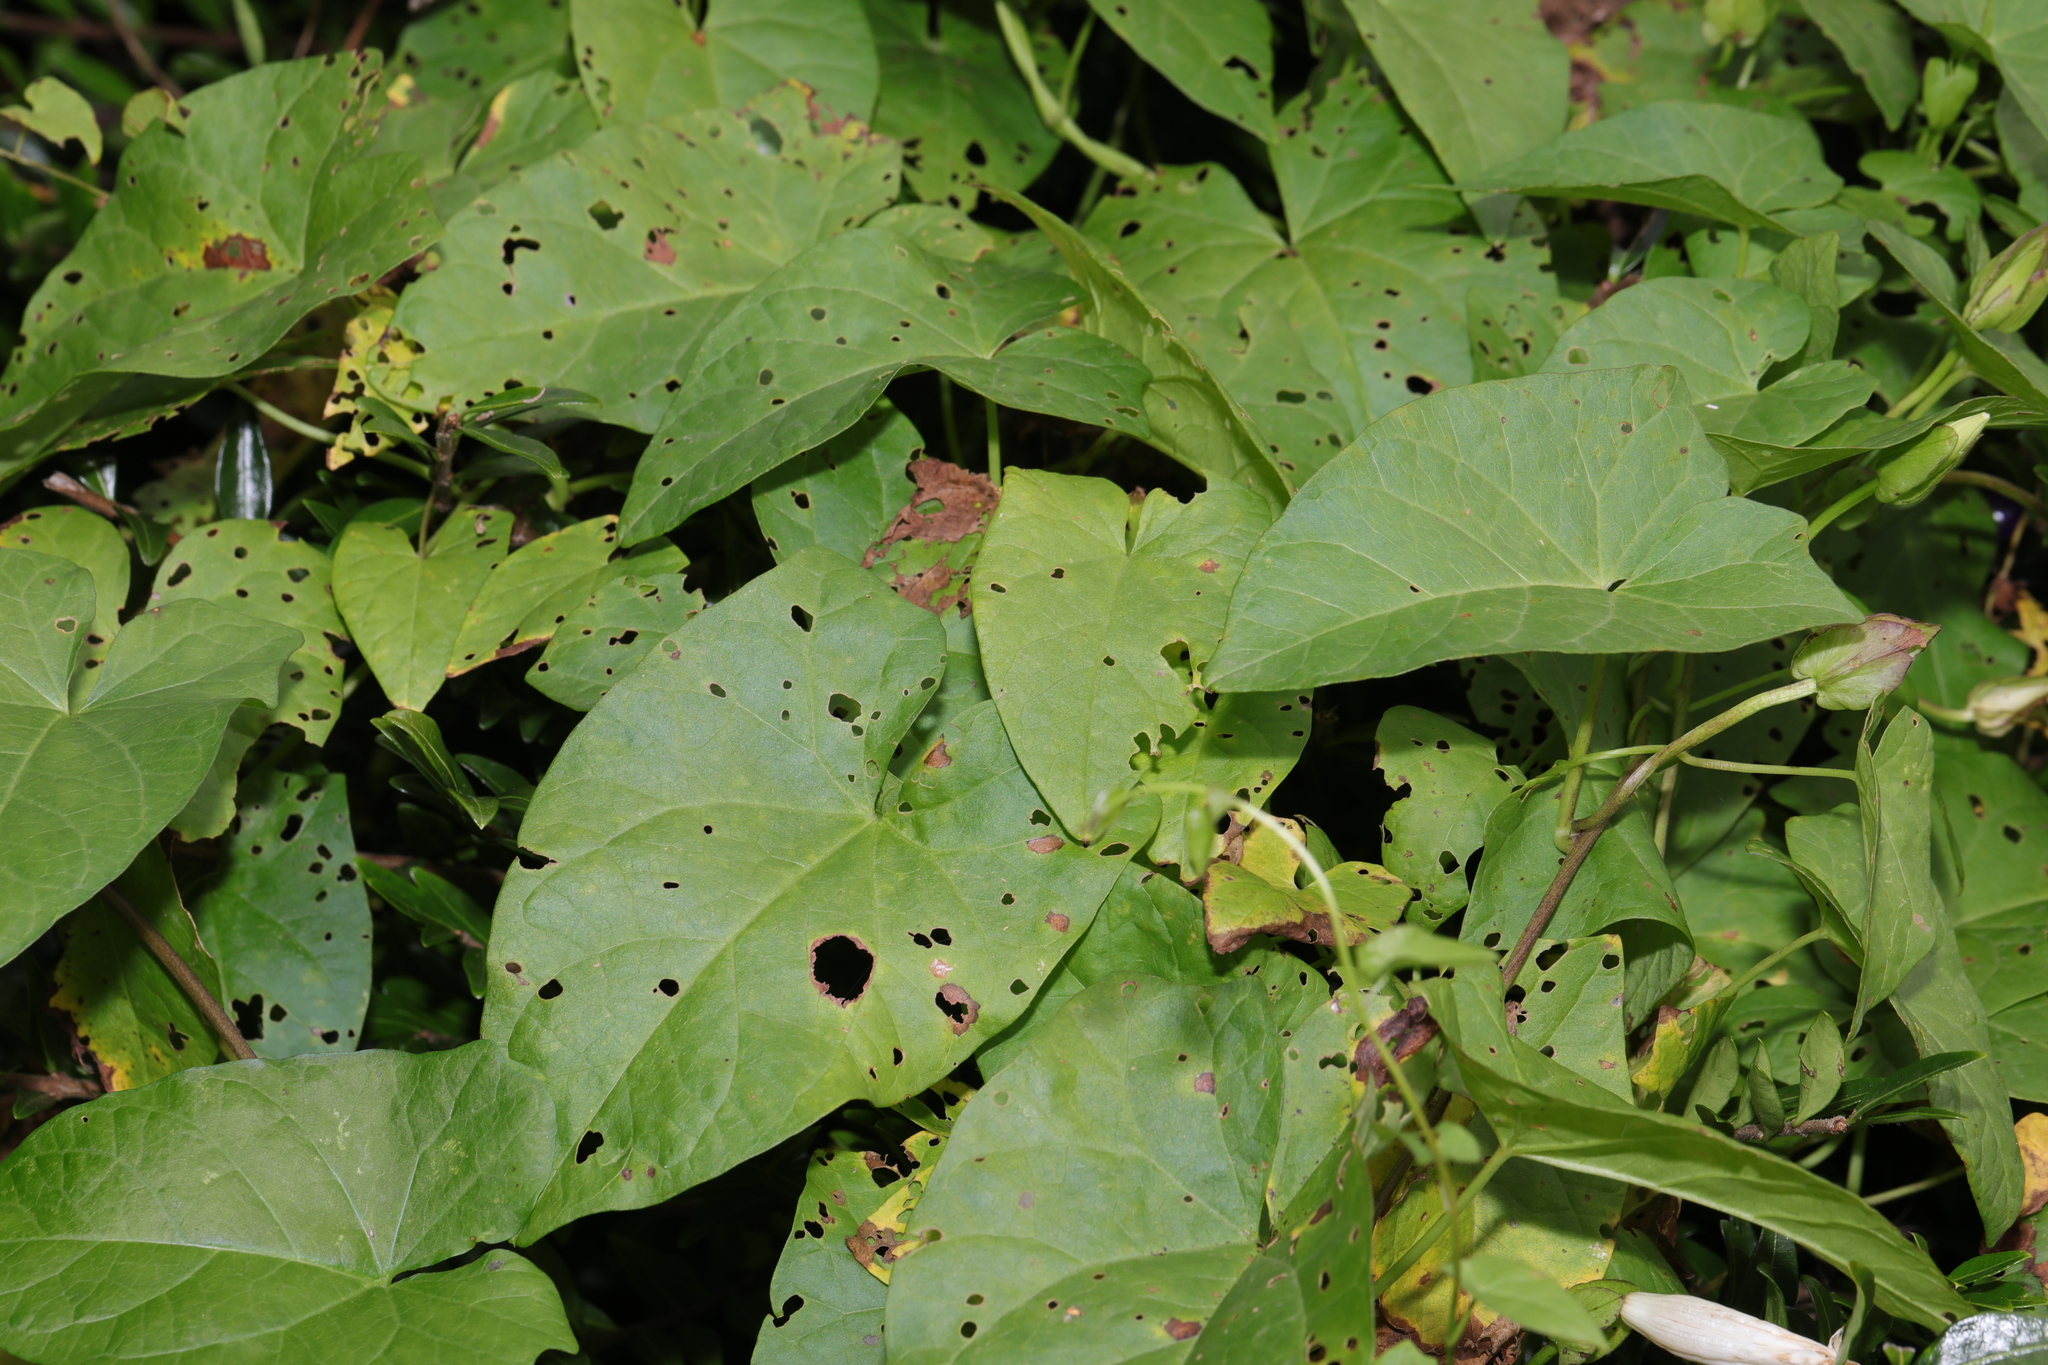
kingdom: Plantae
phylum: Tracheophyta
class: Magnoliopsida
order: Solanales
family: Convolvulaceae
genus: Calystegia
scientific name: Calystegia sepium
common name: Hedge bindweed
